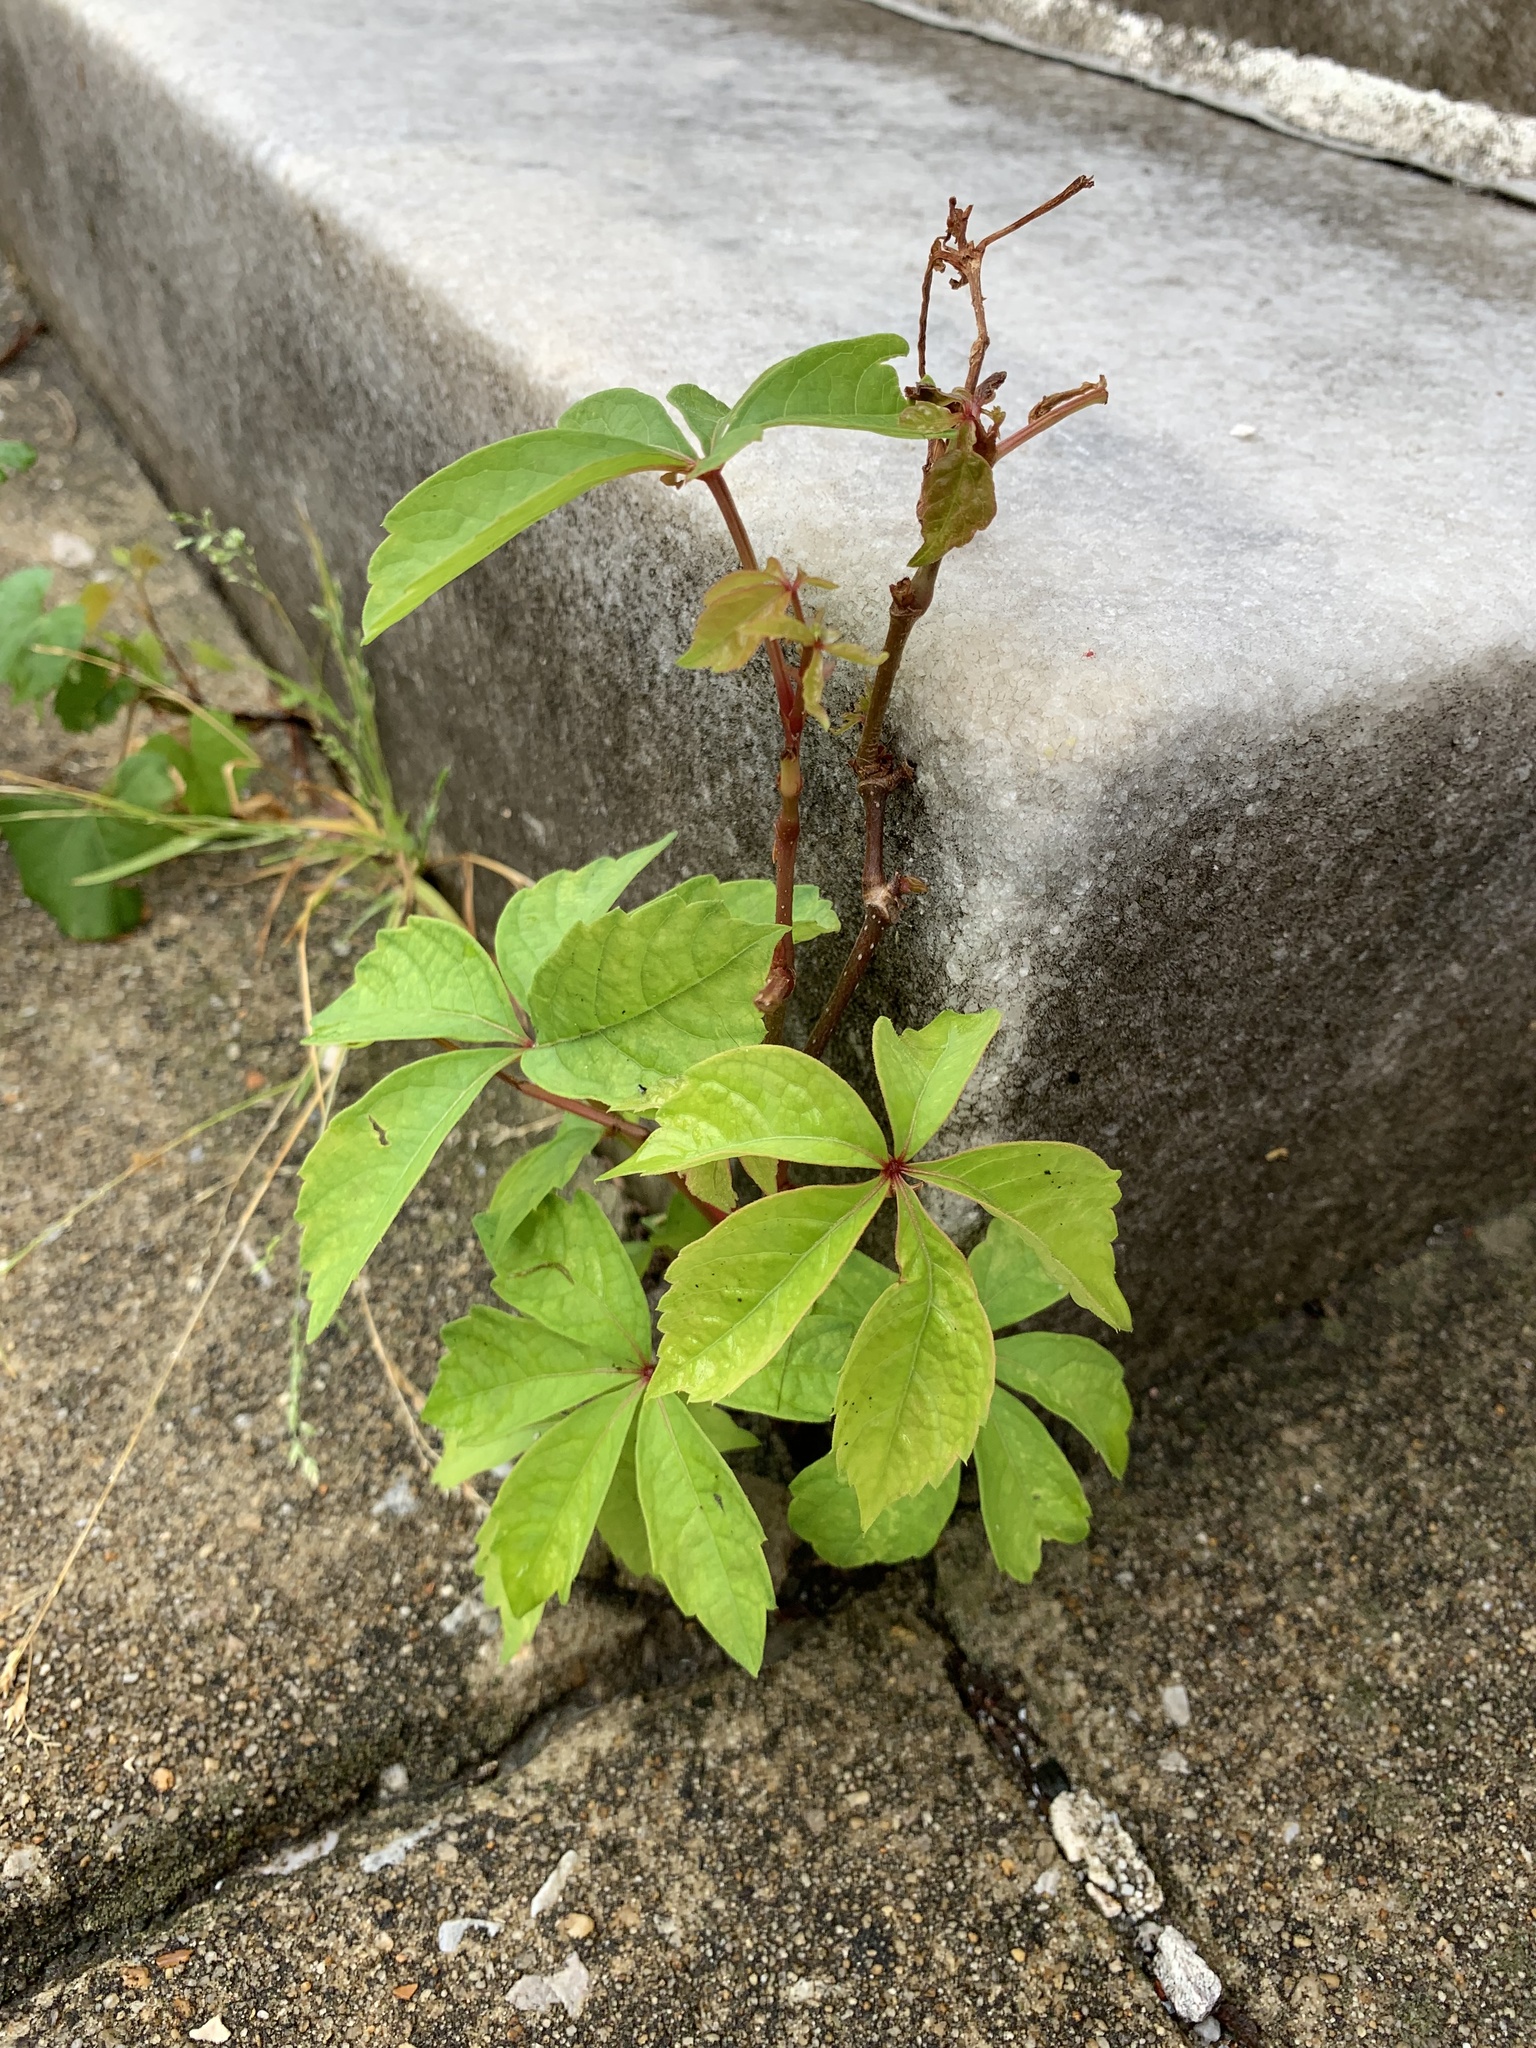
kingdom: Plantae
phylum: Tracheophyta
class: Magnoliopsida
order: Vitales
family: Vitaceae
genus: Parthenocissus
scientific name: Parthenocissus quinquefolia
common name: Virginia-creeper
